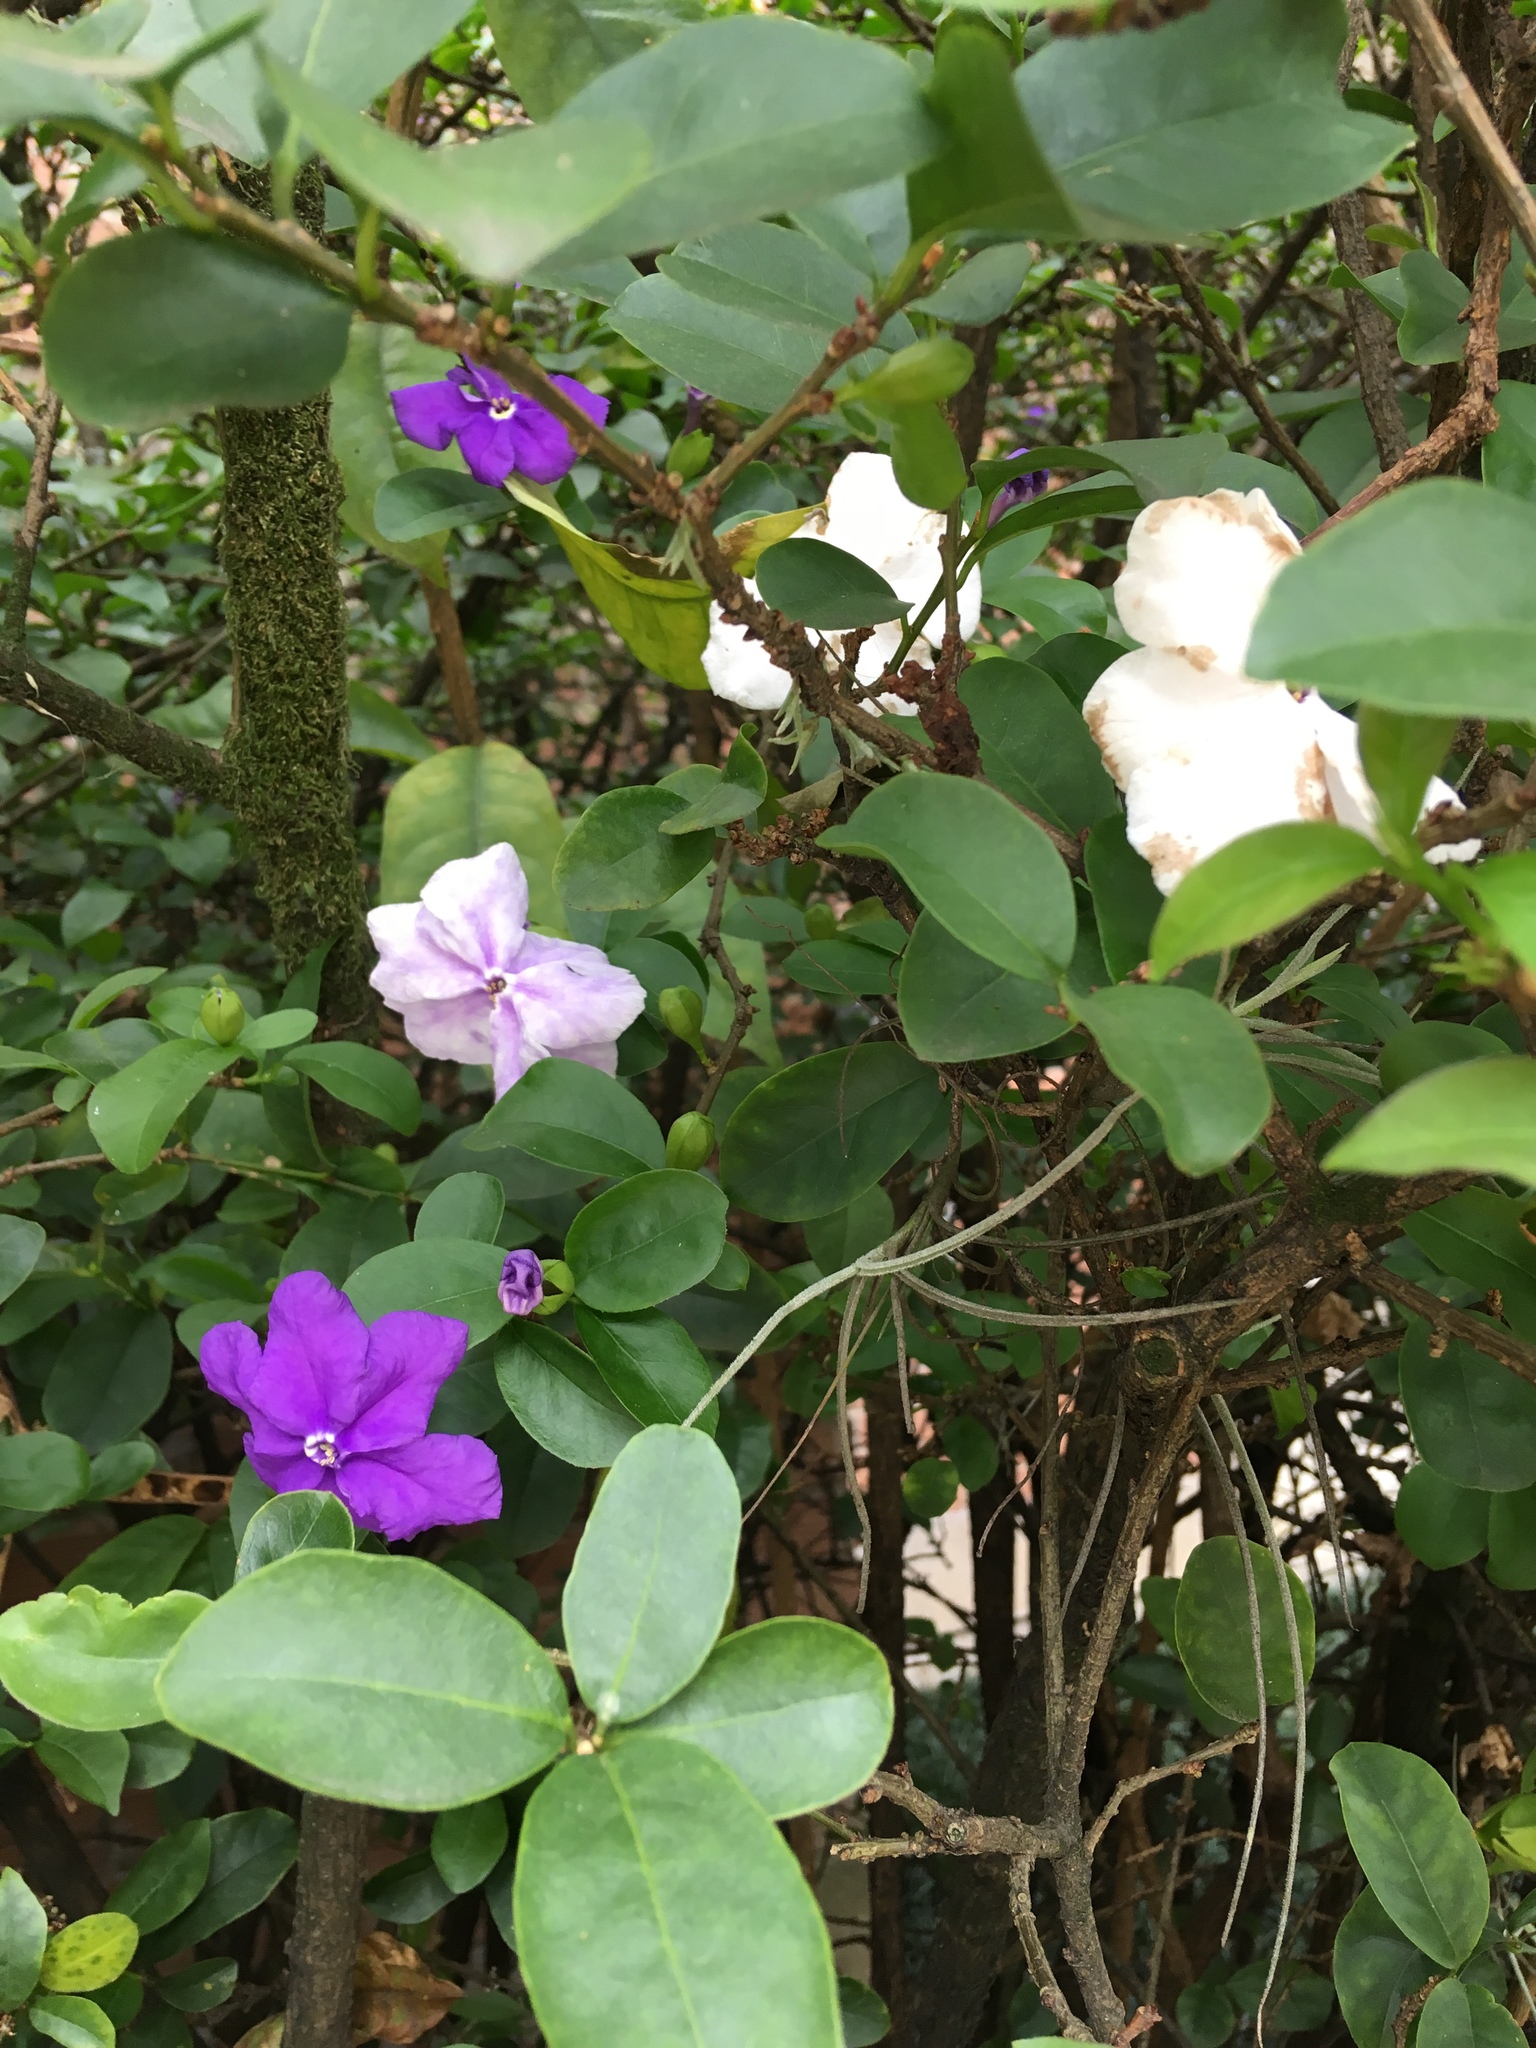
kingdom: Plantae
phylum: Tracheophyta
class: Magnoliopsida
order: Solanales
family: Solanaceae
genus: Brunfelsia
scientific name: Brunfelsia uniflora
